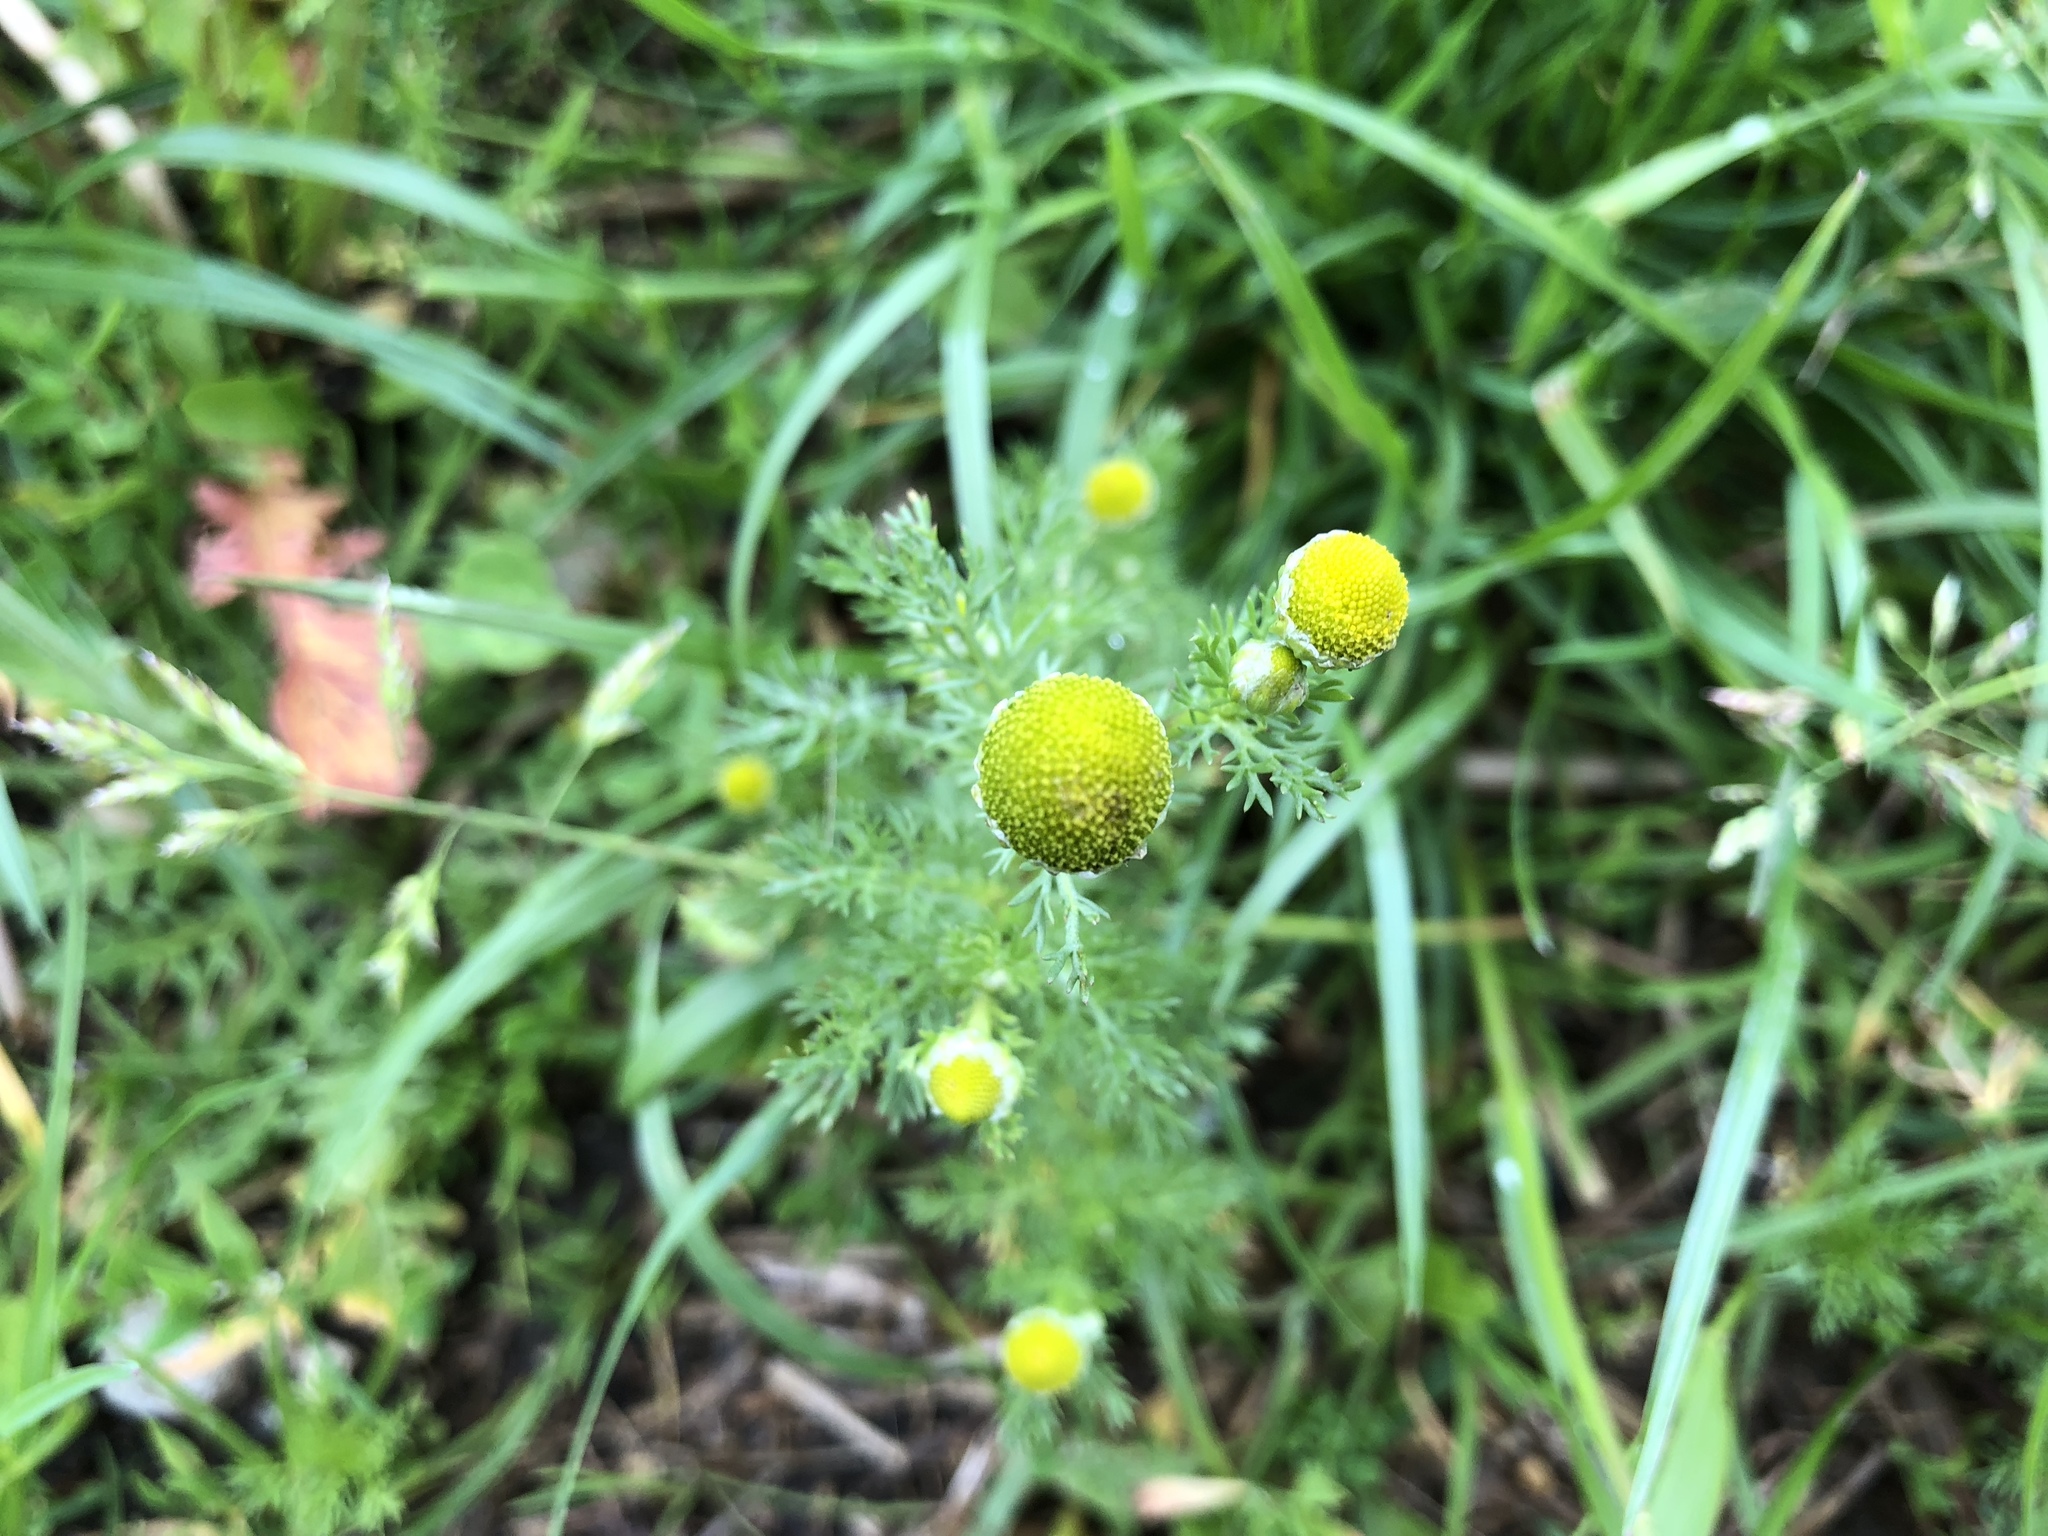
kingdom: Plantae
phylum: Tracheophyta
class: Magnoliopsida
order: Asterales
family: Asteraceae
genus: Matricaria
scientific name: Matricaria discoidea
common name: Disc mayweed
